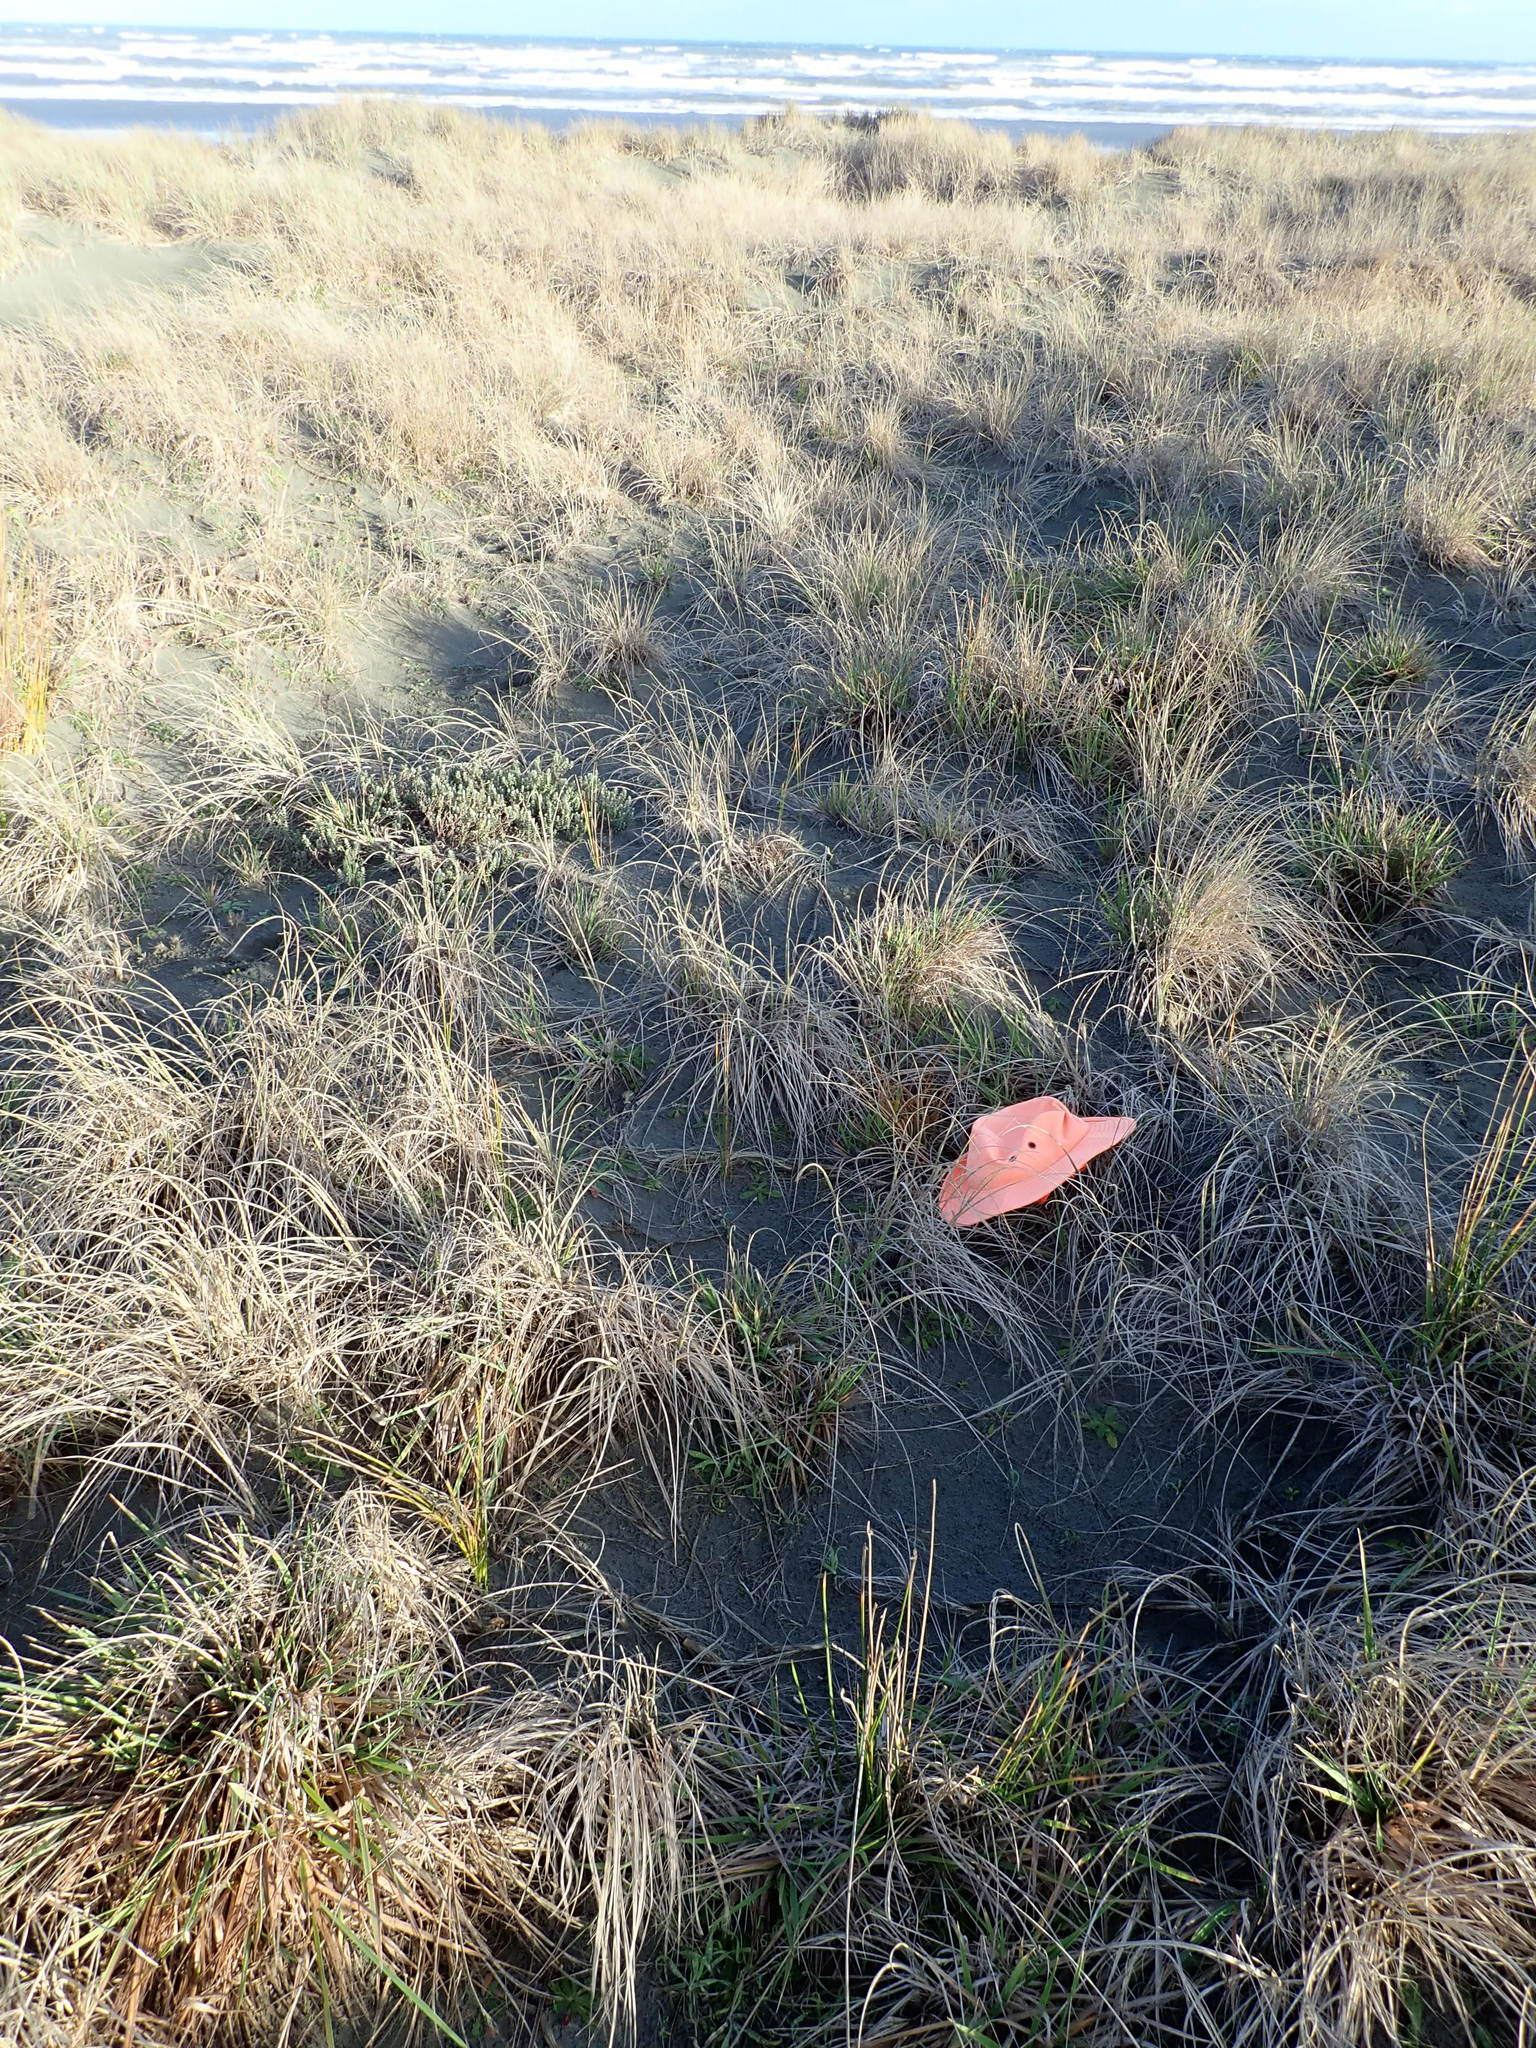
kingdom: Plantae
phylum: Tracheophyta
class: Liliopsida
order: Poales
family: Cyperaceae
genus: Carex
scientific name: Carex testacea
